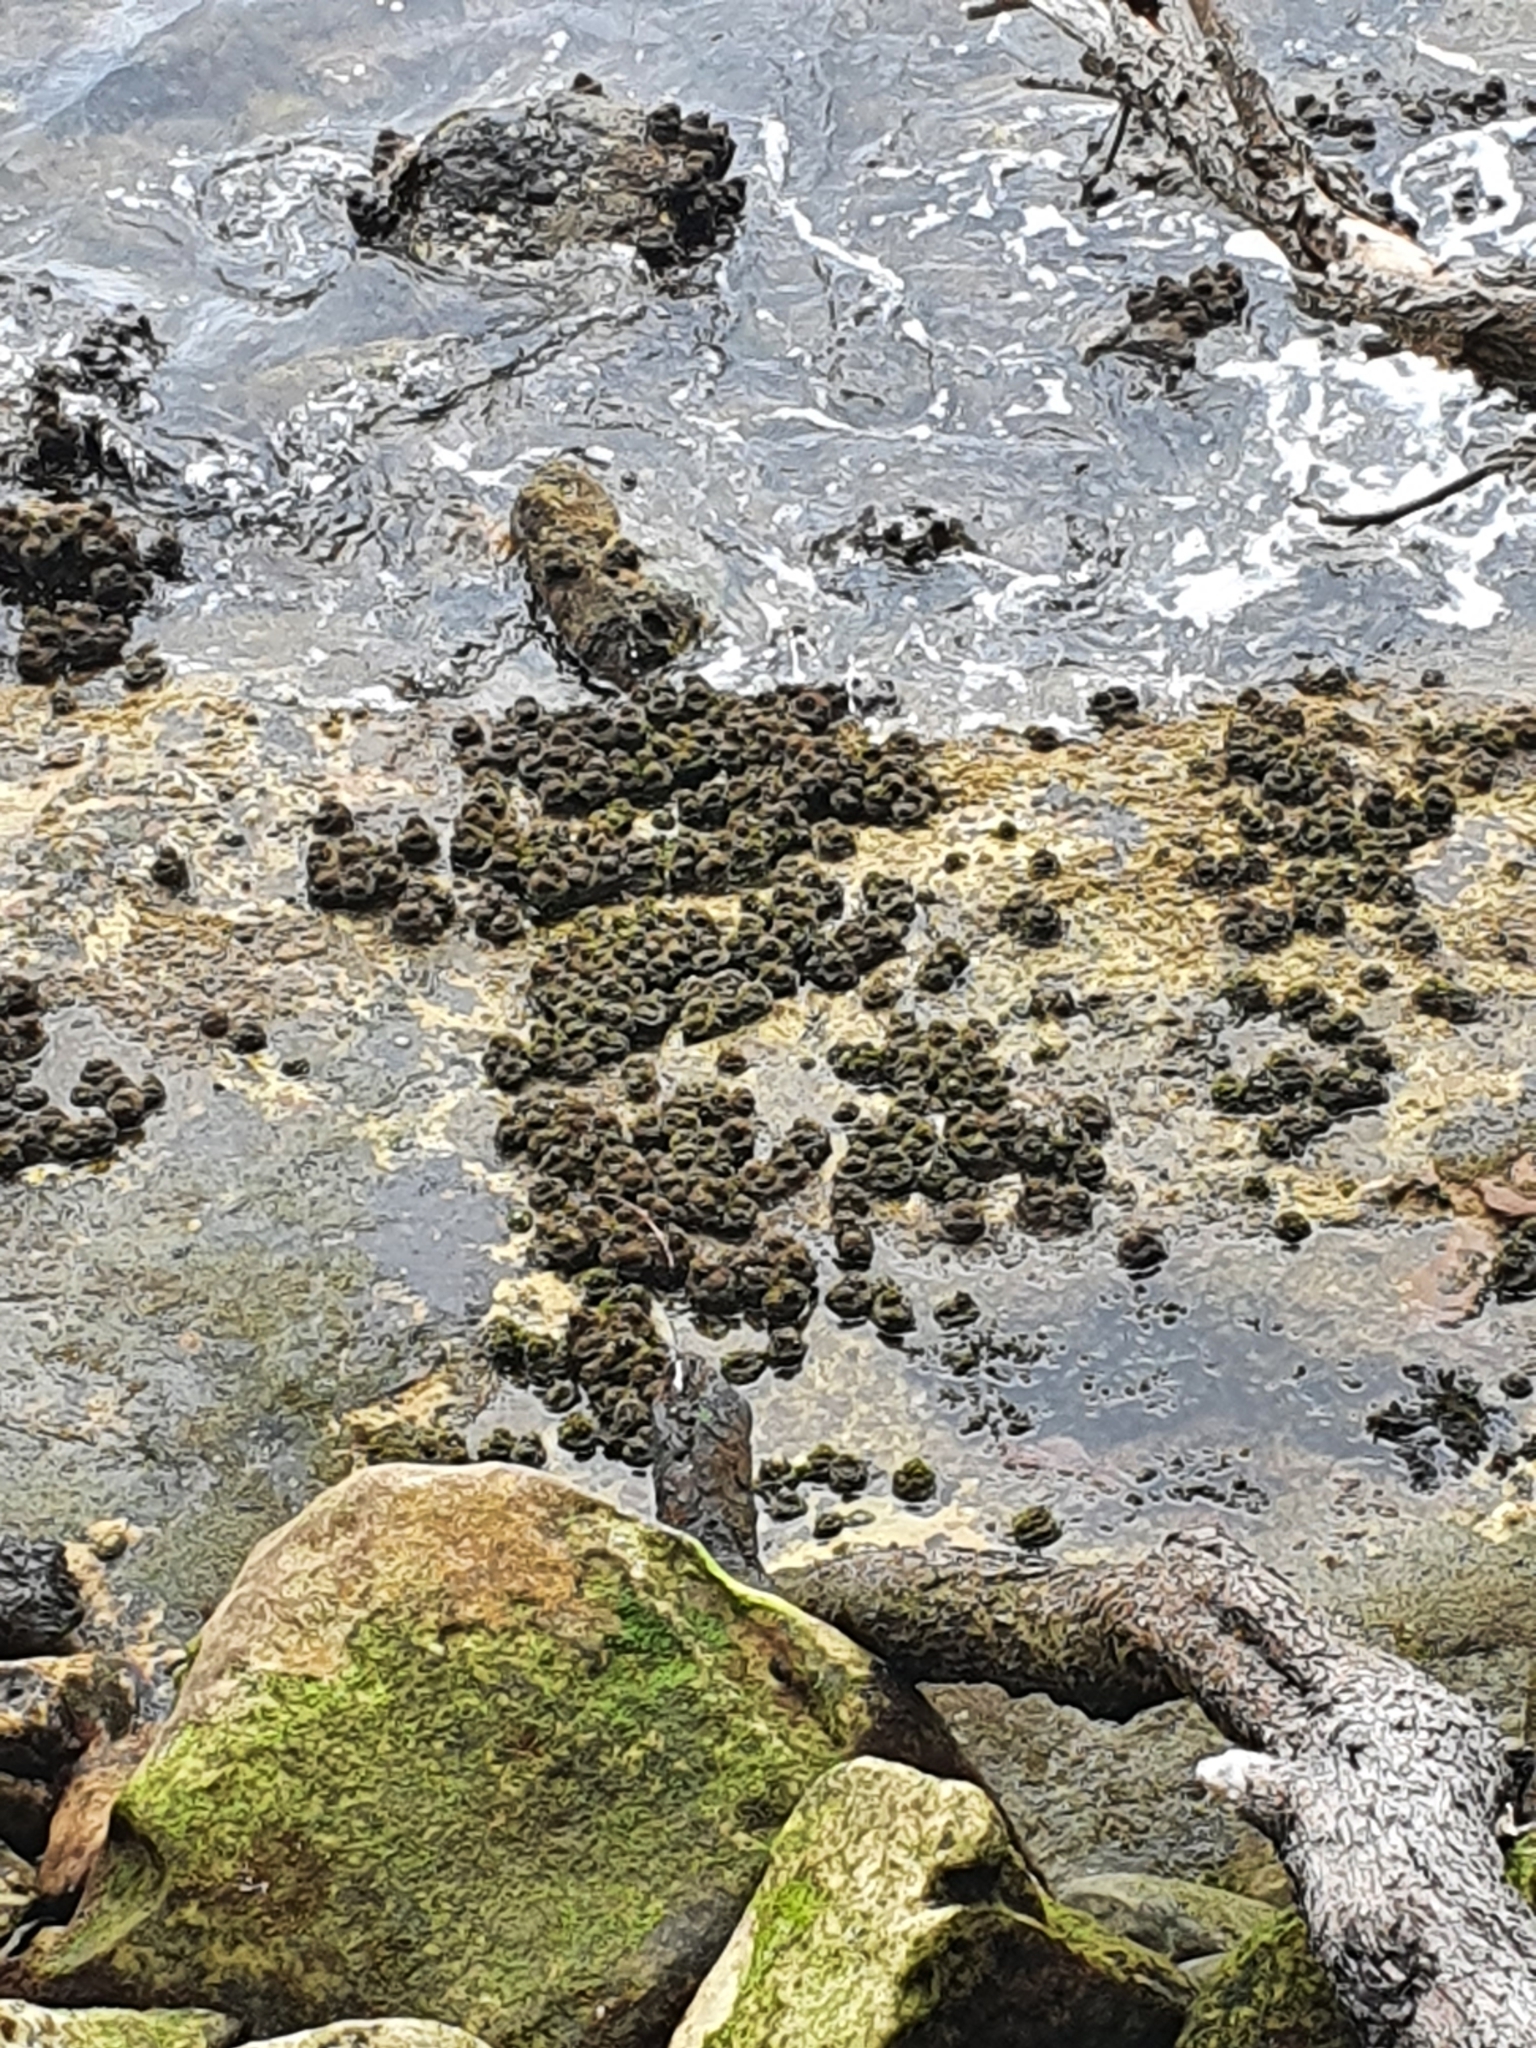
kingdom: Animalia
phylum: Chordata
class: Ascidiacea
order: Stolidobranchia
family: Pyuridae
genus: Pyura
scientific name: Pyura praeputialis
